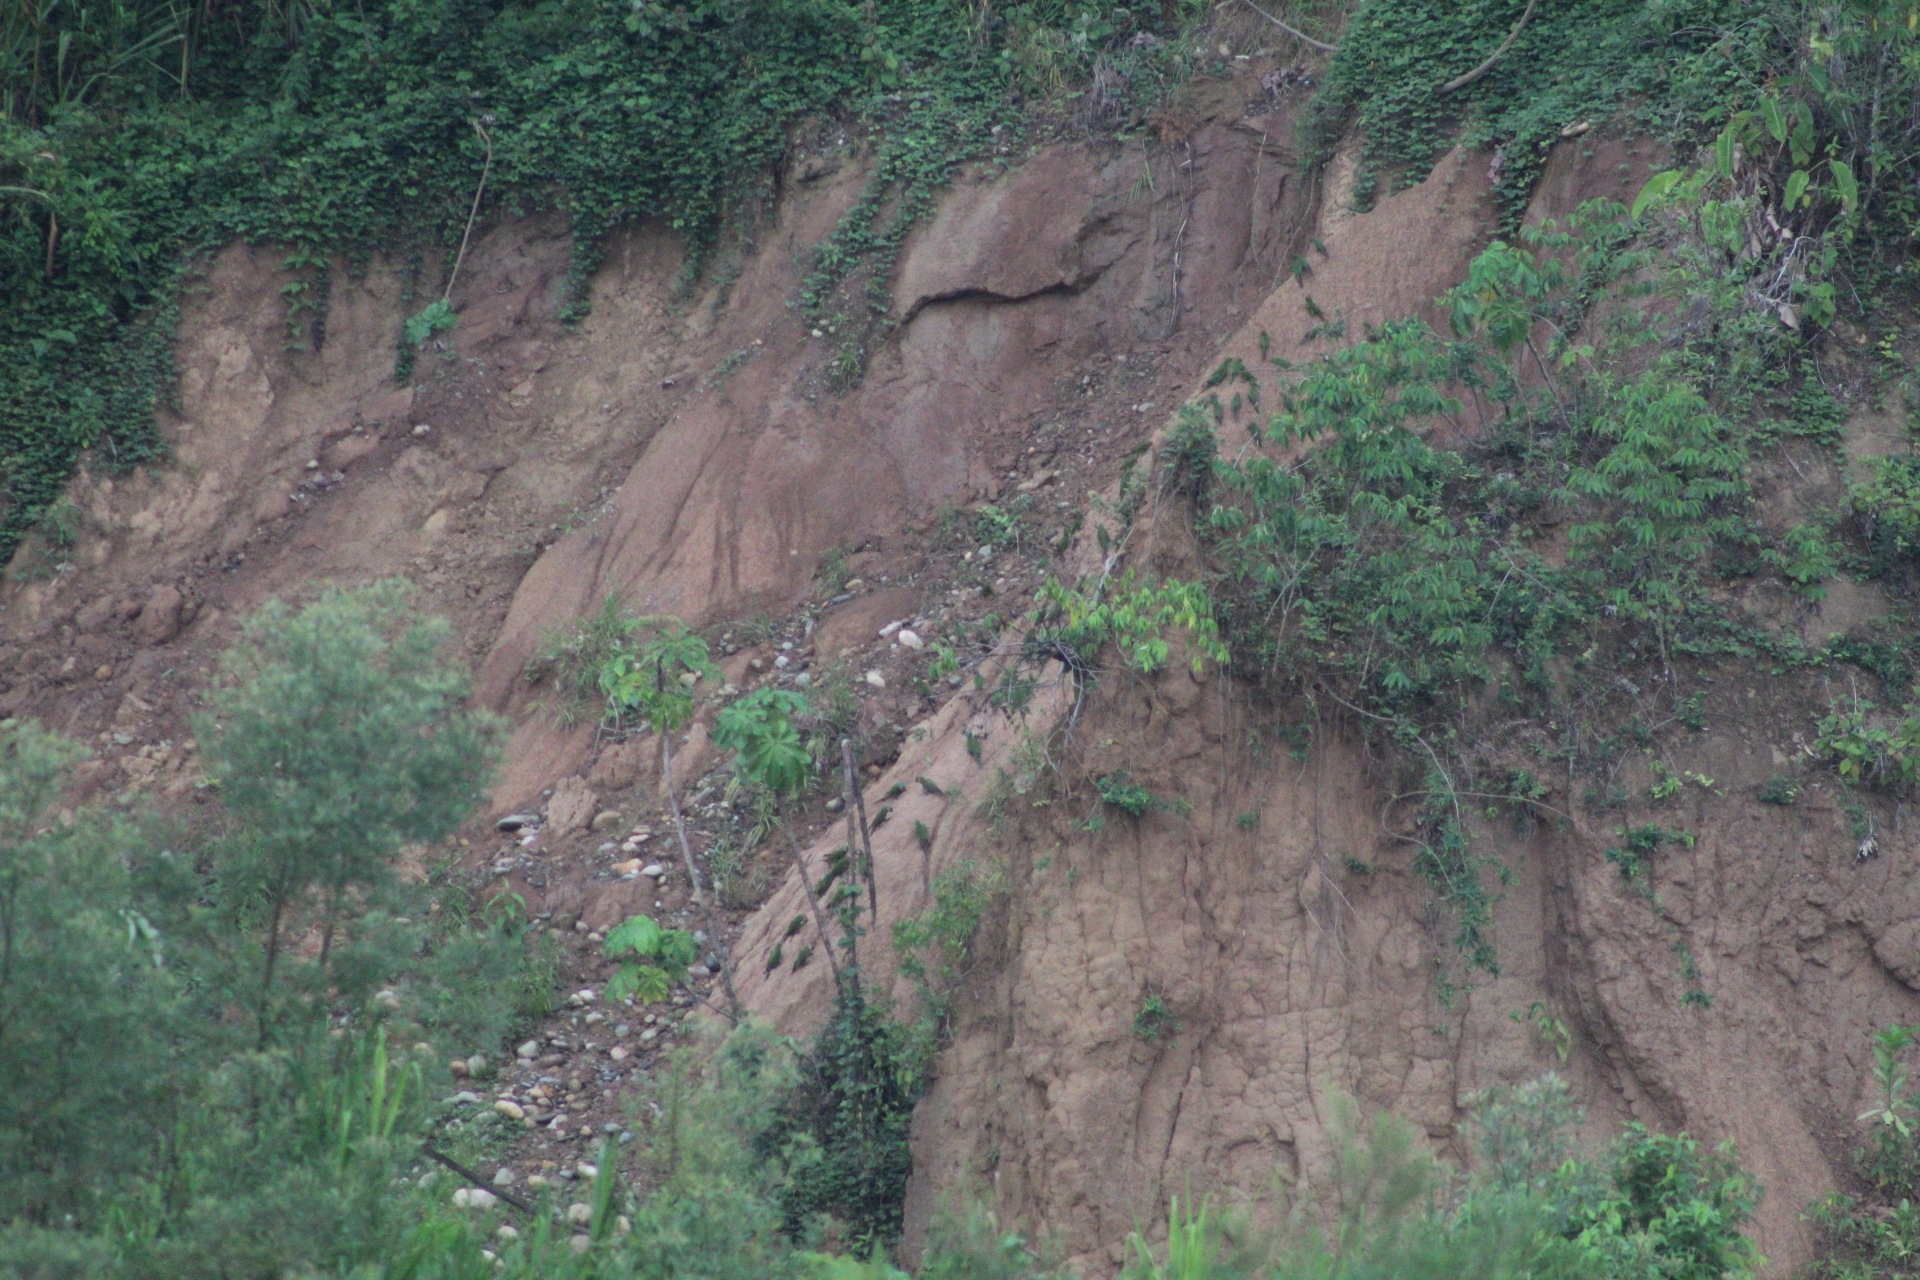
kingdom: Animalia
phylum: Chordata
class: Aves
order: Psittaciformes
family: Psittacidae
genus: Ara
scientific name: Ara severus
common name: Chestnut-fronted macaw
